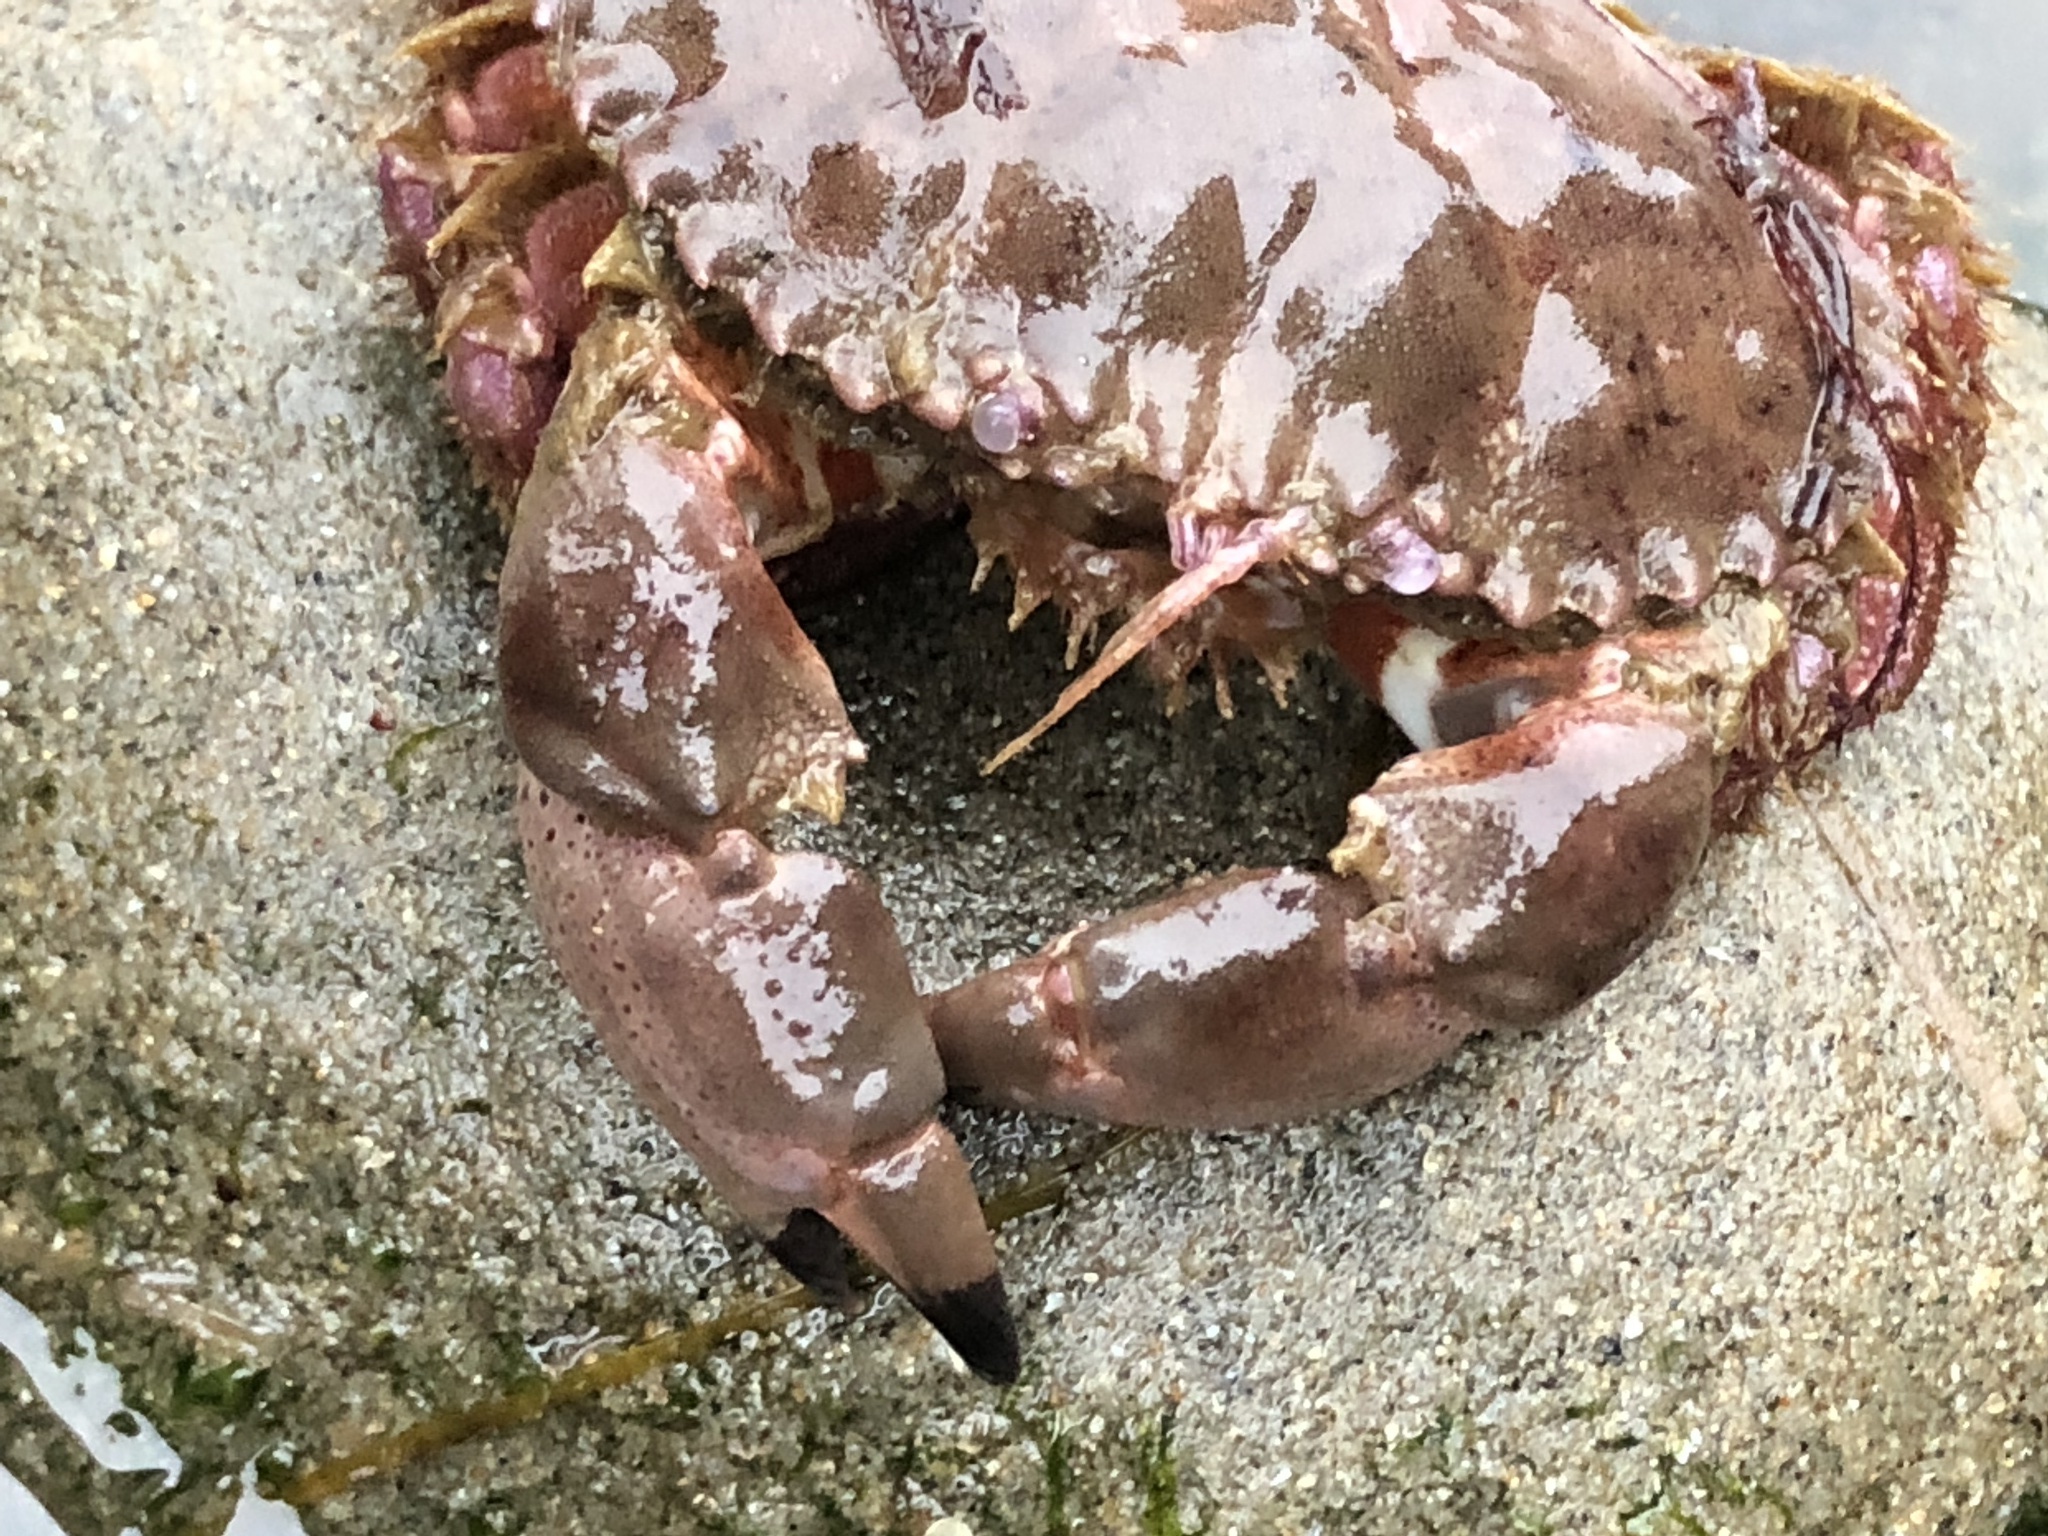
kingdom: Animalia
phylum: Arthropoda
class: Malacostraca
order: Decapoda
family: Cancridae
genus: Romaleon
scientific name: Romaleon antennarium
